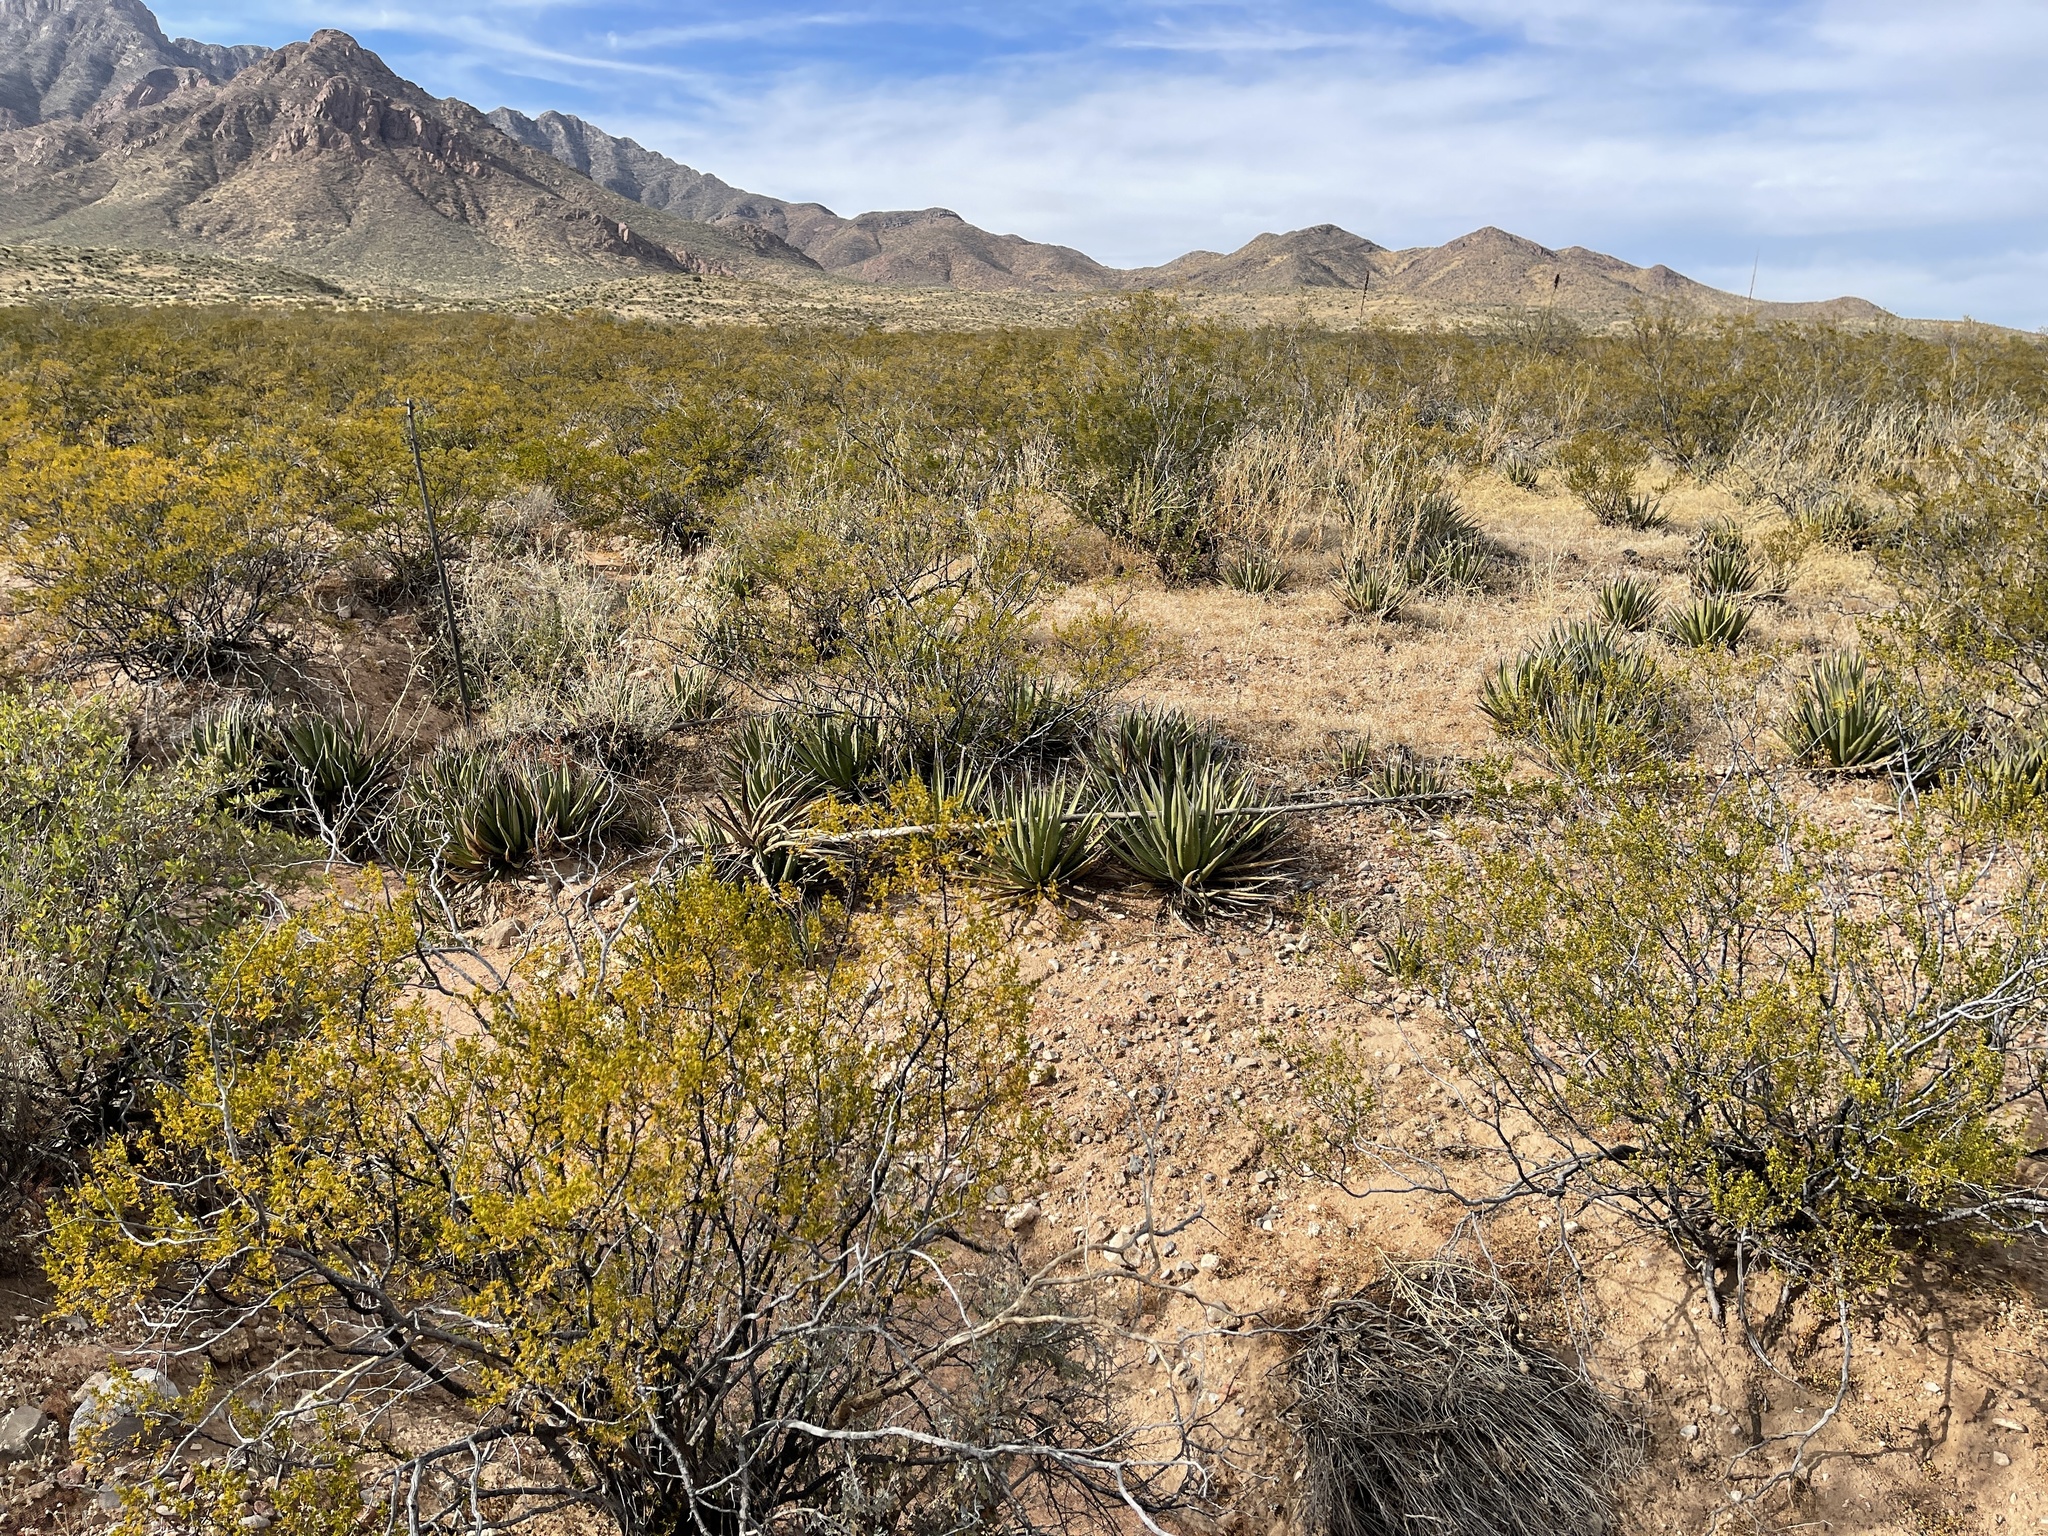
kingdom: Plantae
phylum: Tracheophyta
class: Liliopsida
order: Asparagales
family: Asparagaceae
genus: Agave
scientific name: Agave lechuguilla
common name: Lecheguilla agave
